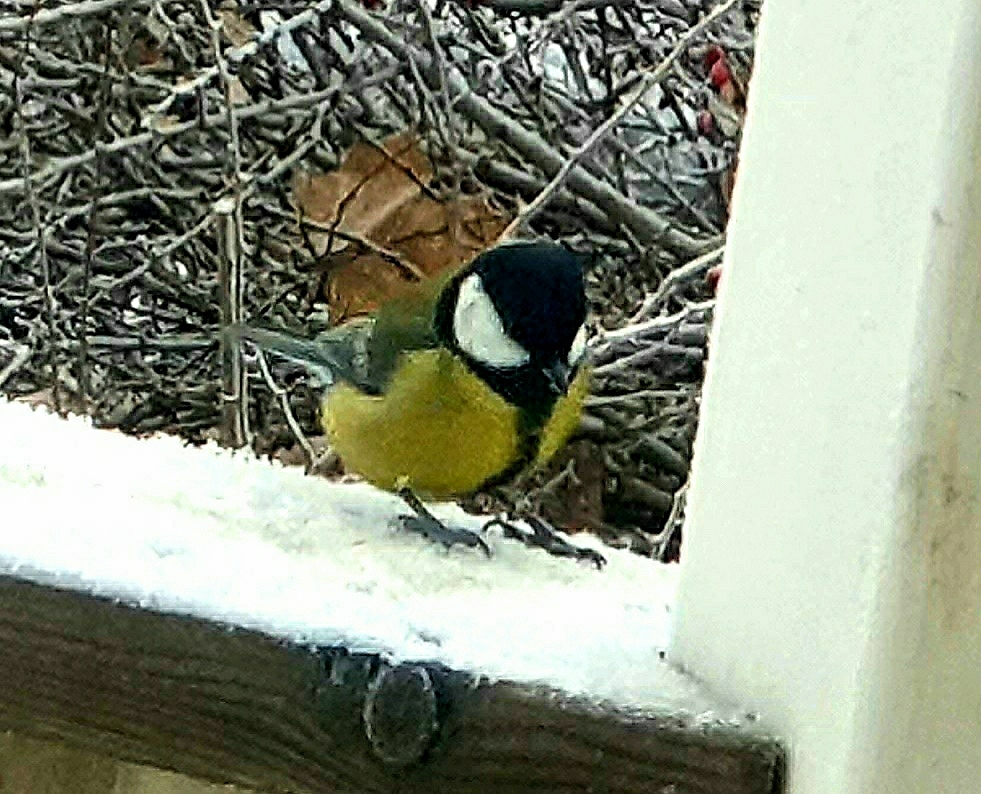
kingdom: Animalia
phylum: Chordata
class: Aves
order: Passeriformes
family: Paridae
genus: Parus
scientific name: Parus major
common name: Great tit
